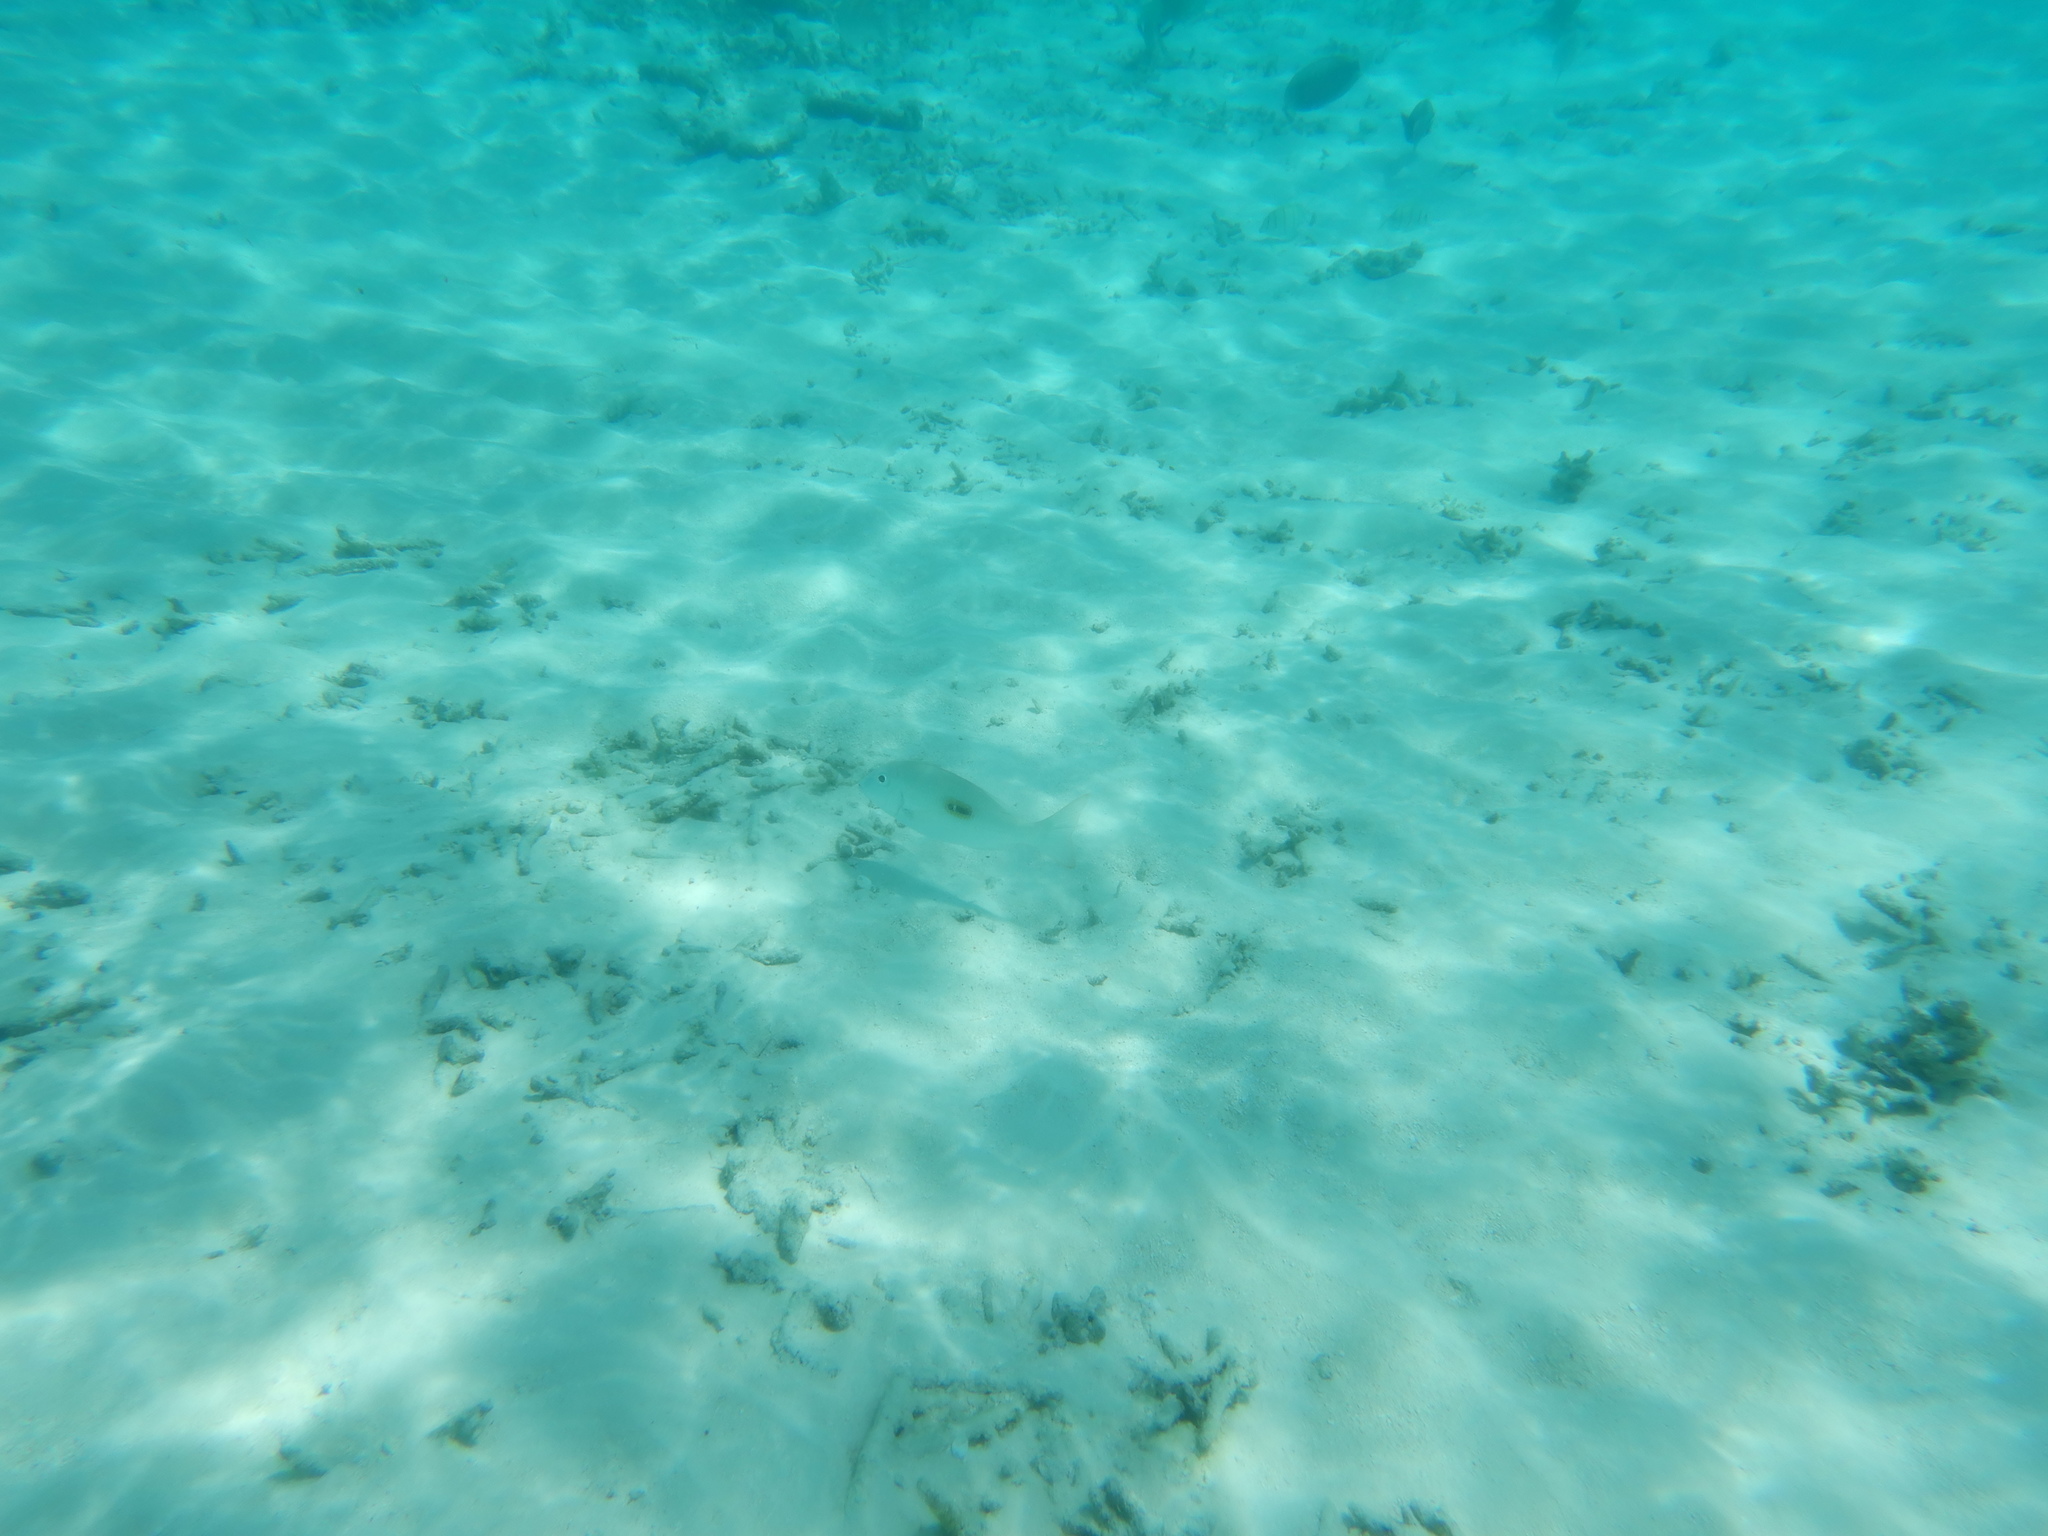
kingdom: Animalia
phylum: Chordata
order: Perciformes
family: Lethrinidae
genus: Lethrinus
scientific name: Lethrinus harak
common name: Blackspot emperor
